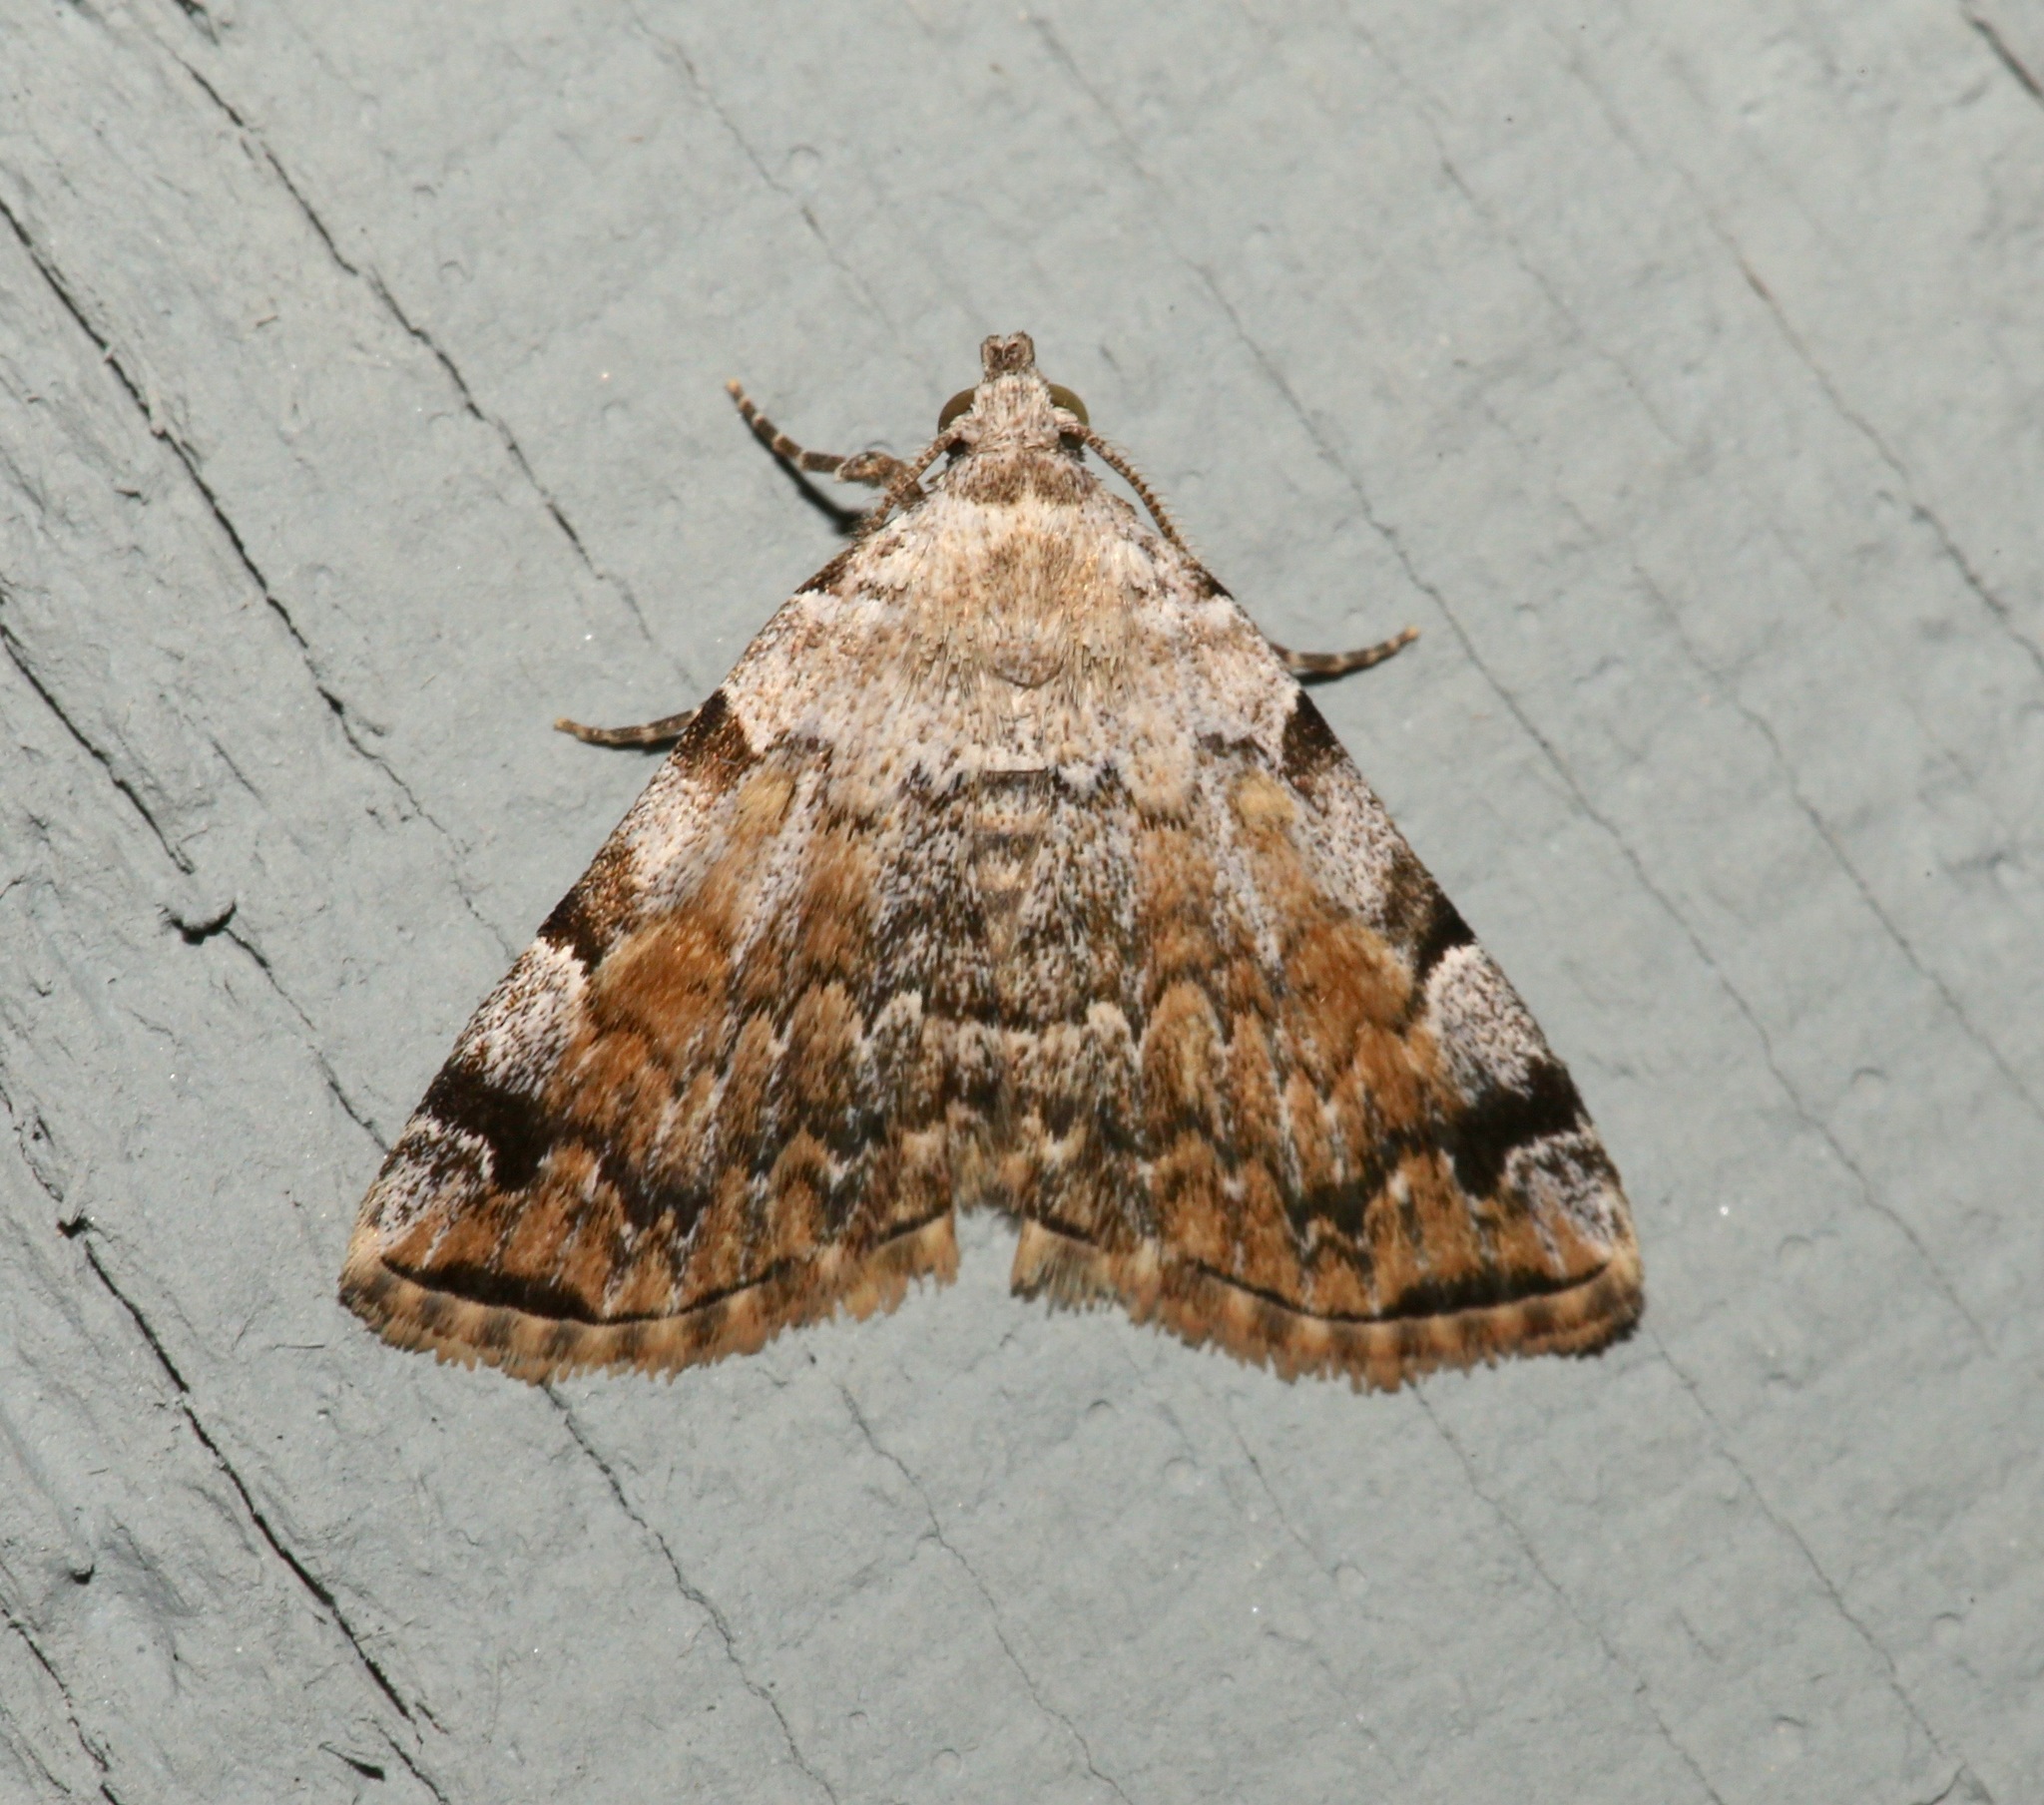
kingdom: Animalia
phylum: Arthropoda
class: Insecta
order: Lepidoptera
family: Erebidae
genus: Idia
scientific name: Idia americalis
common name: American idia moth
